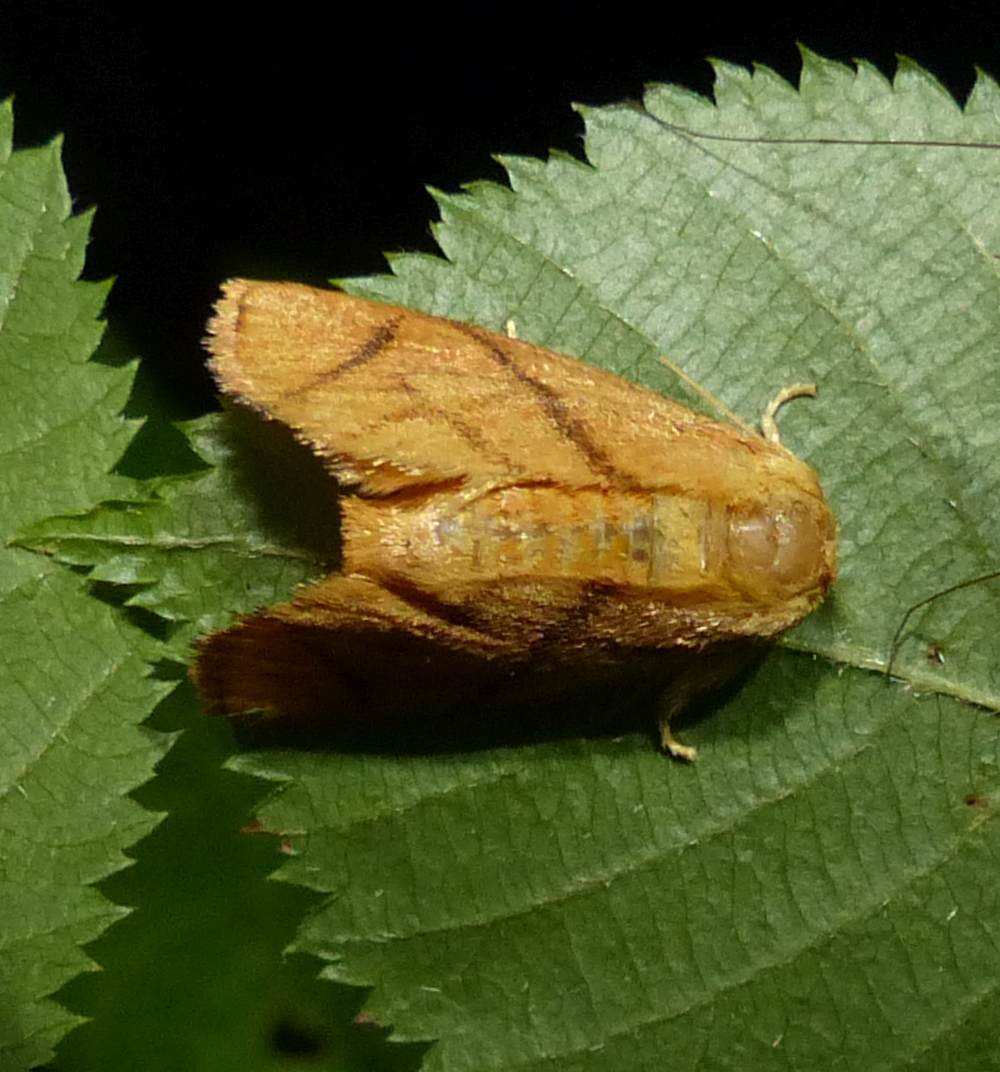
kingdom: Animalia
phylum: Arthropoda
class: Insecta
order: Lepidoptera
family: Limacodidae
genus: Apoda
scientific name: Apoda y-inversa
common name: Yellow-collared slug moth
